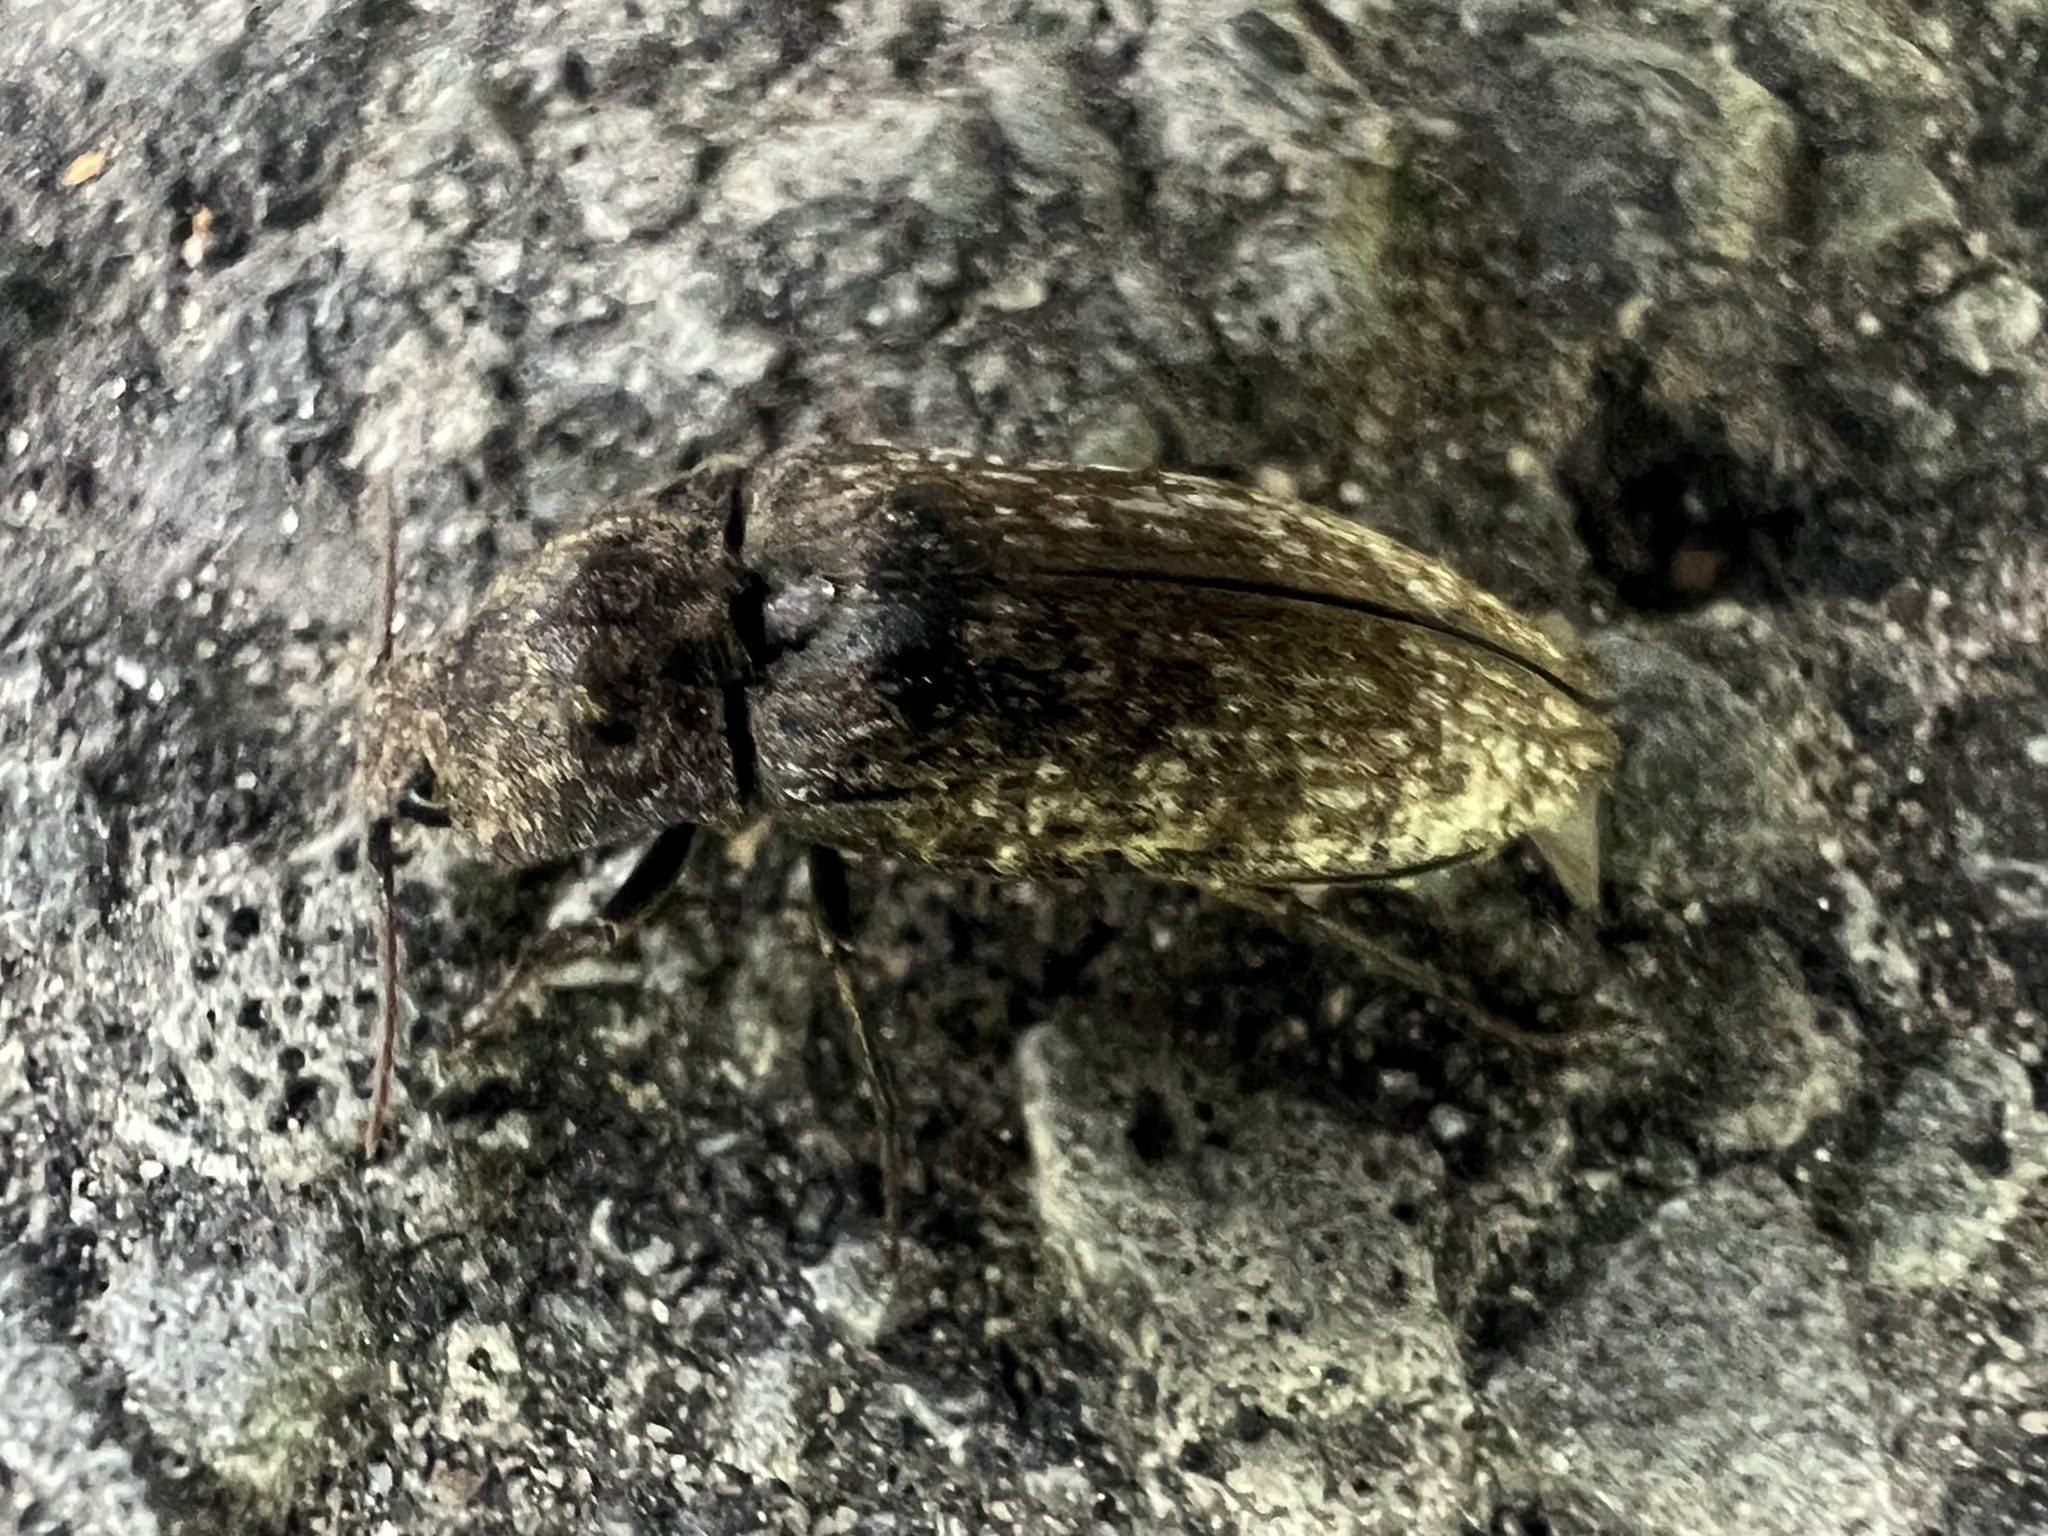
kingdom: Animalia
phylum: Arthropoda
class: Insecta
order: Coleoptera
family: Elateridae
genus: Agrypnus
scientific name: Agrypnus murinus
